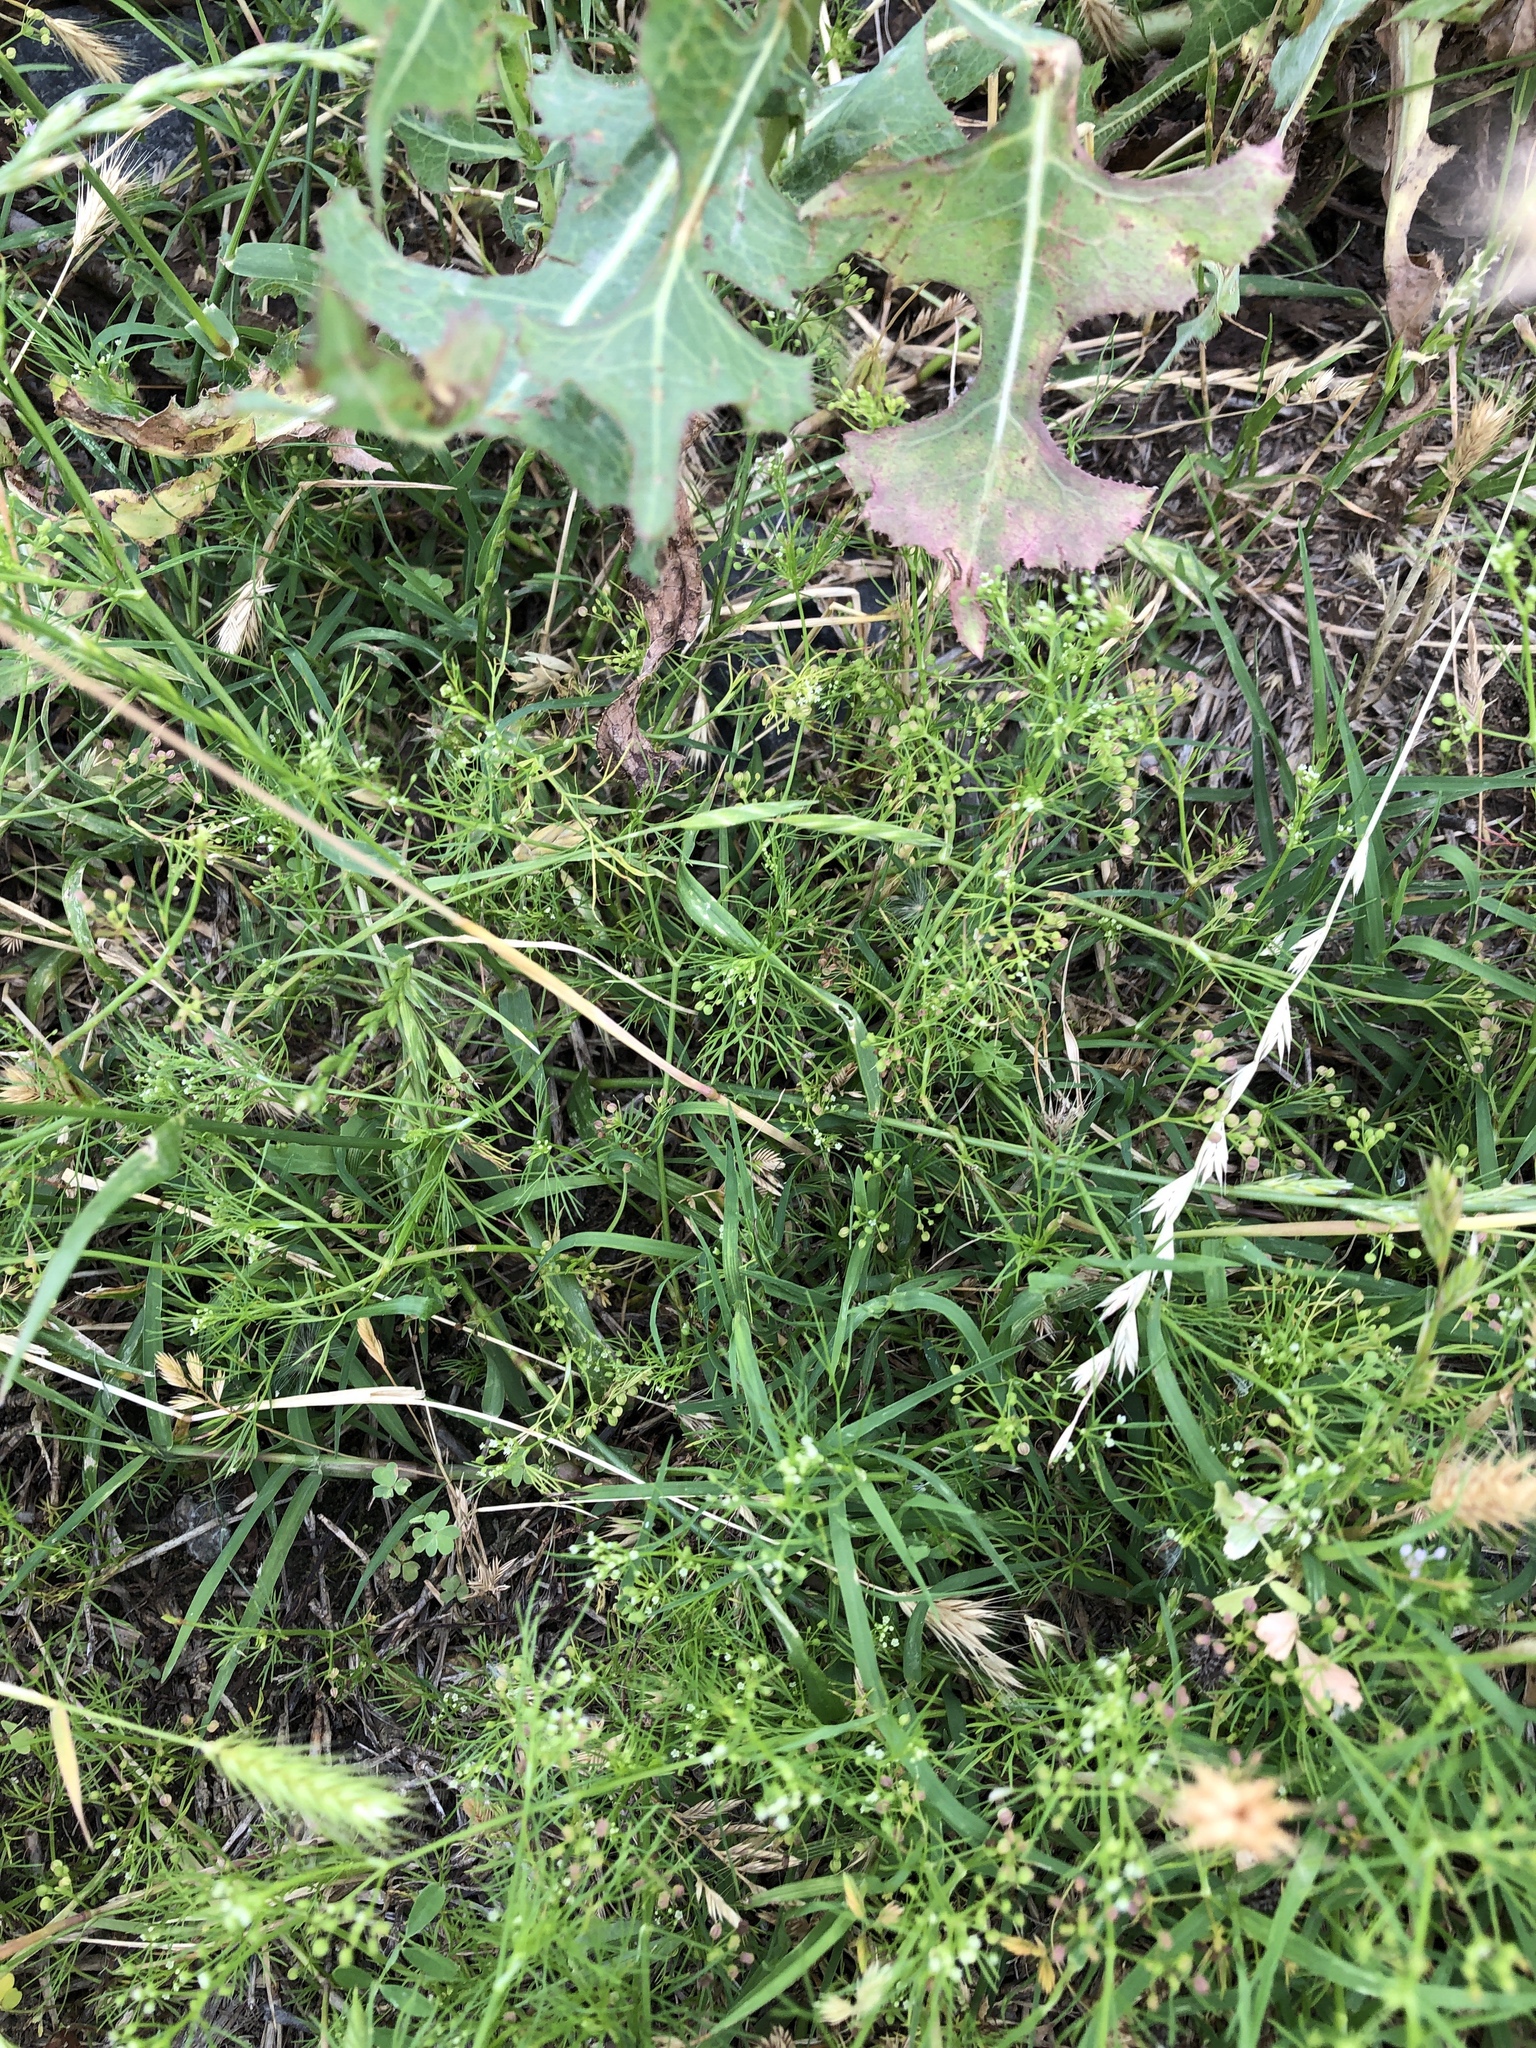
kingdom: Plantae
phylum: Tracheophyta
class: Magnoliopsida
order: Apiales
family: Apiaceae
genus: Cyclospermum
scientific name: Cyclospermum leptophyllum
